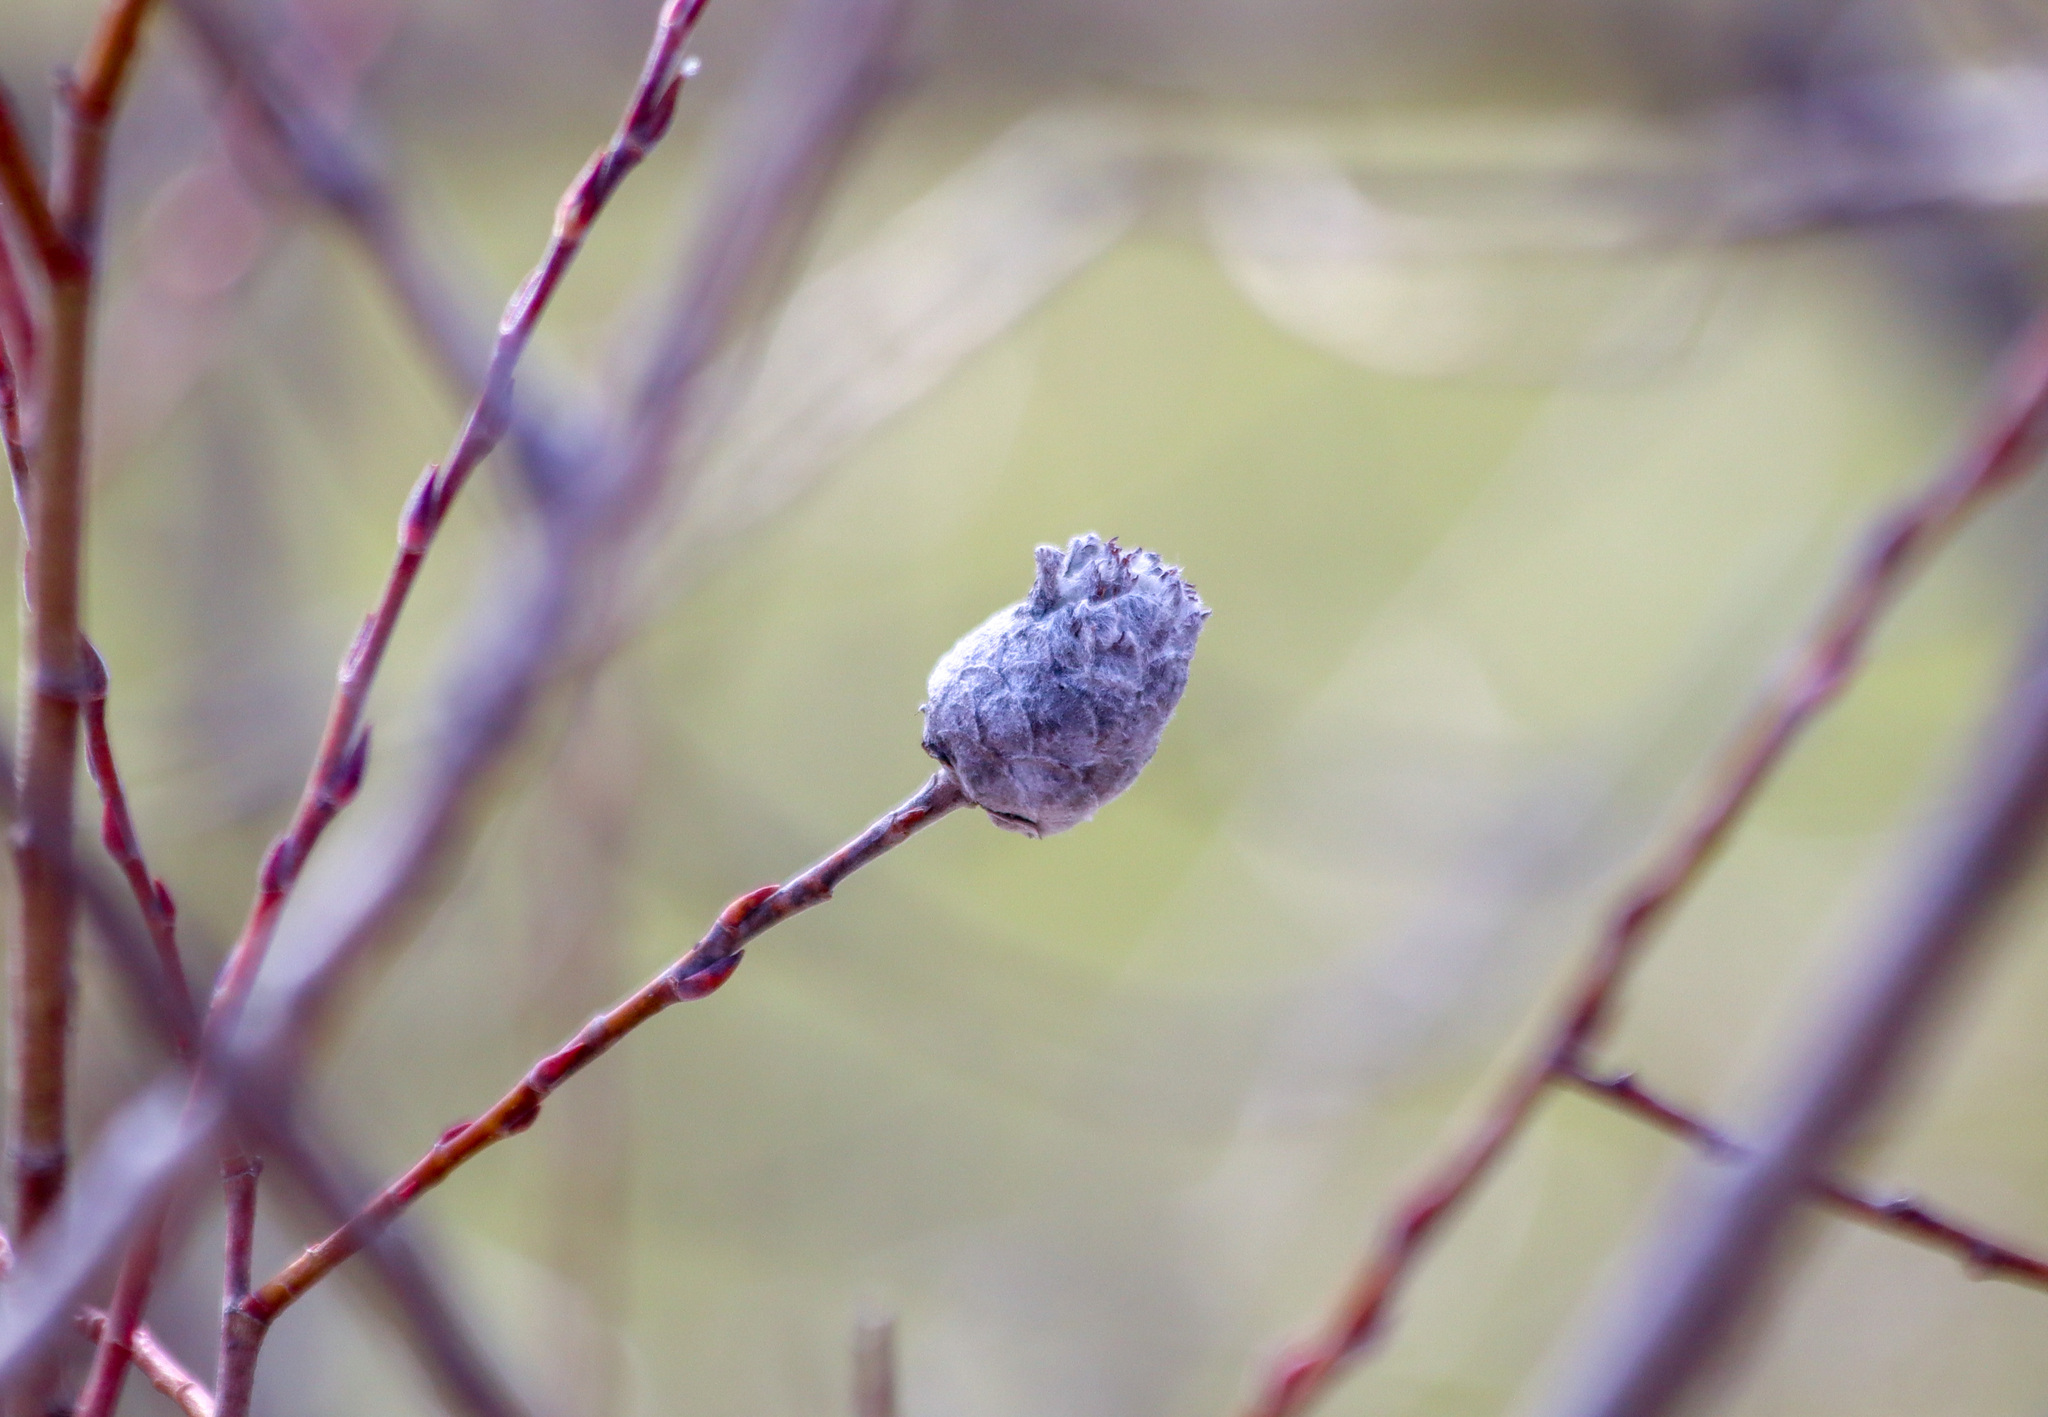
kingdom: Animalia
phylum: Arthropoda
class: Insecta
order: Diptera
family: Cecidomyiidae
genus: Rabdophaga
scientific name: Rabdophaga strobiloides
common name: Willow pinecone gall midge
